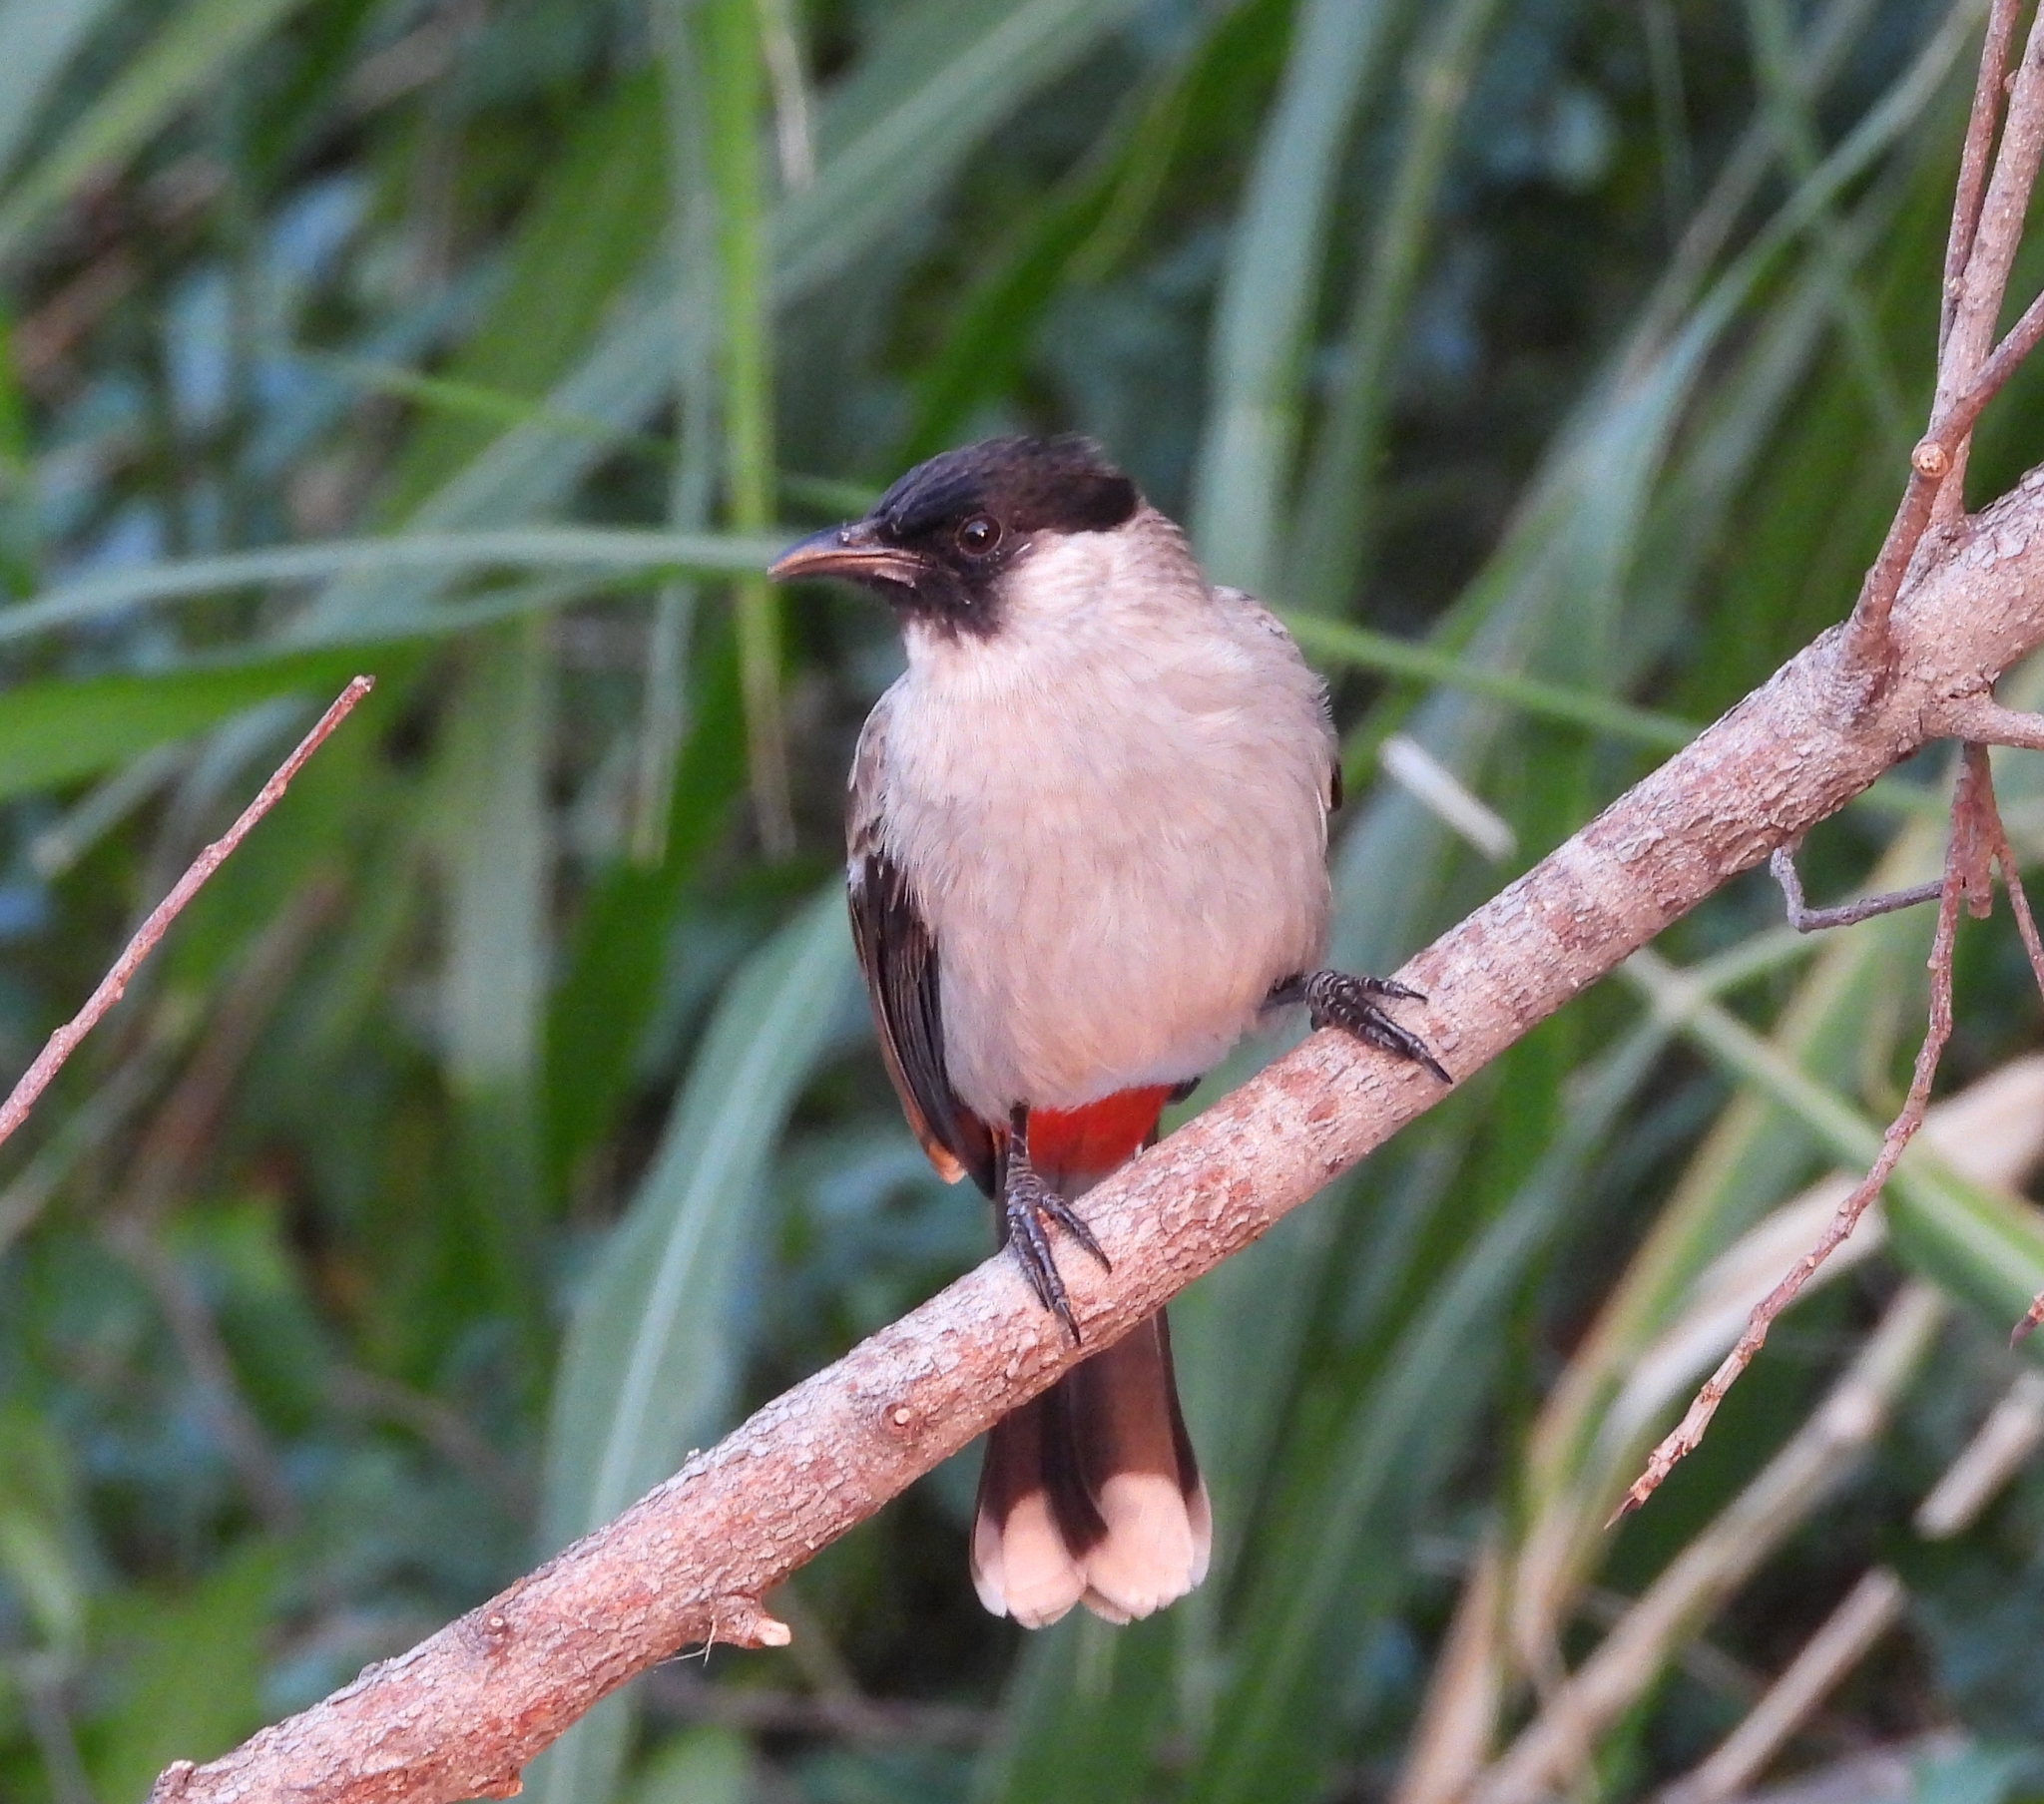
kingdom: Animalia
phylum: Chordata
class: Aves
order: Passeriformes
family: Pycnonotidae
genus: Pycnonotus
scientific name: Pycnonotus aurigaster
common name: Sooty-headed bulbul
